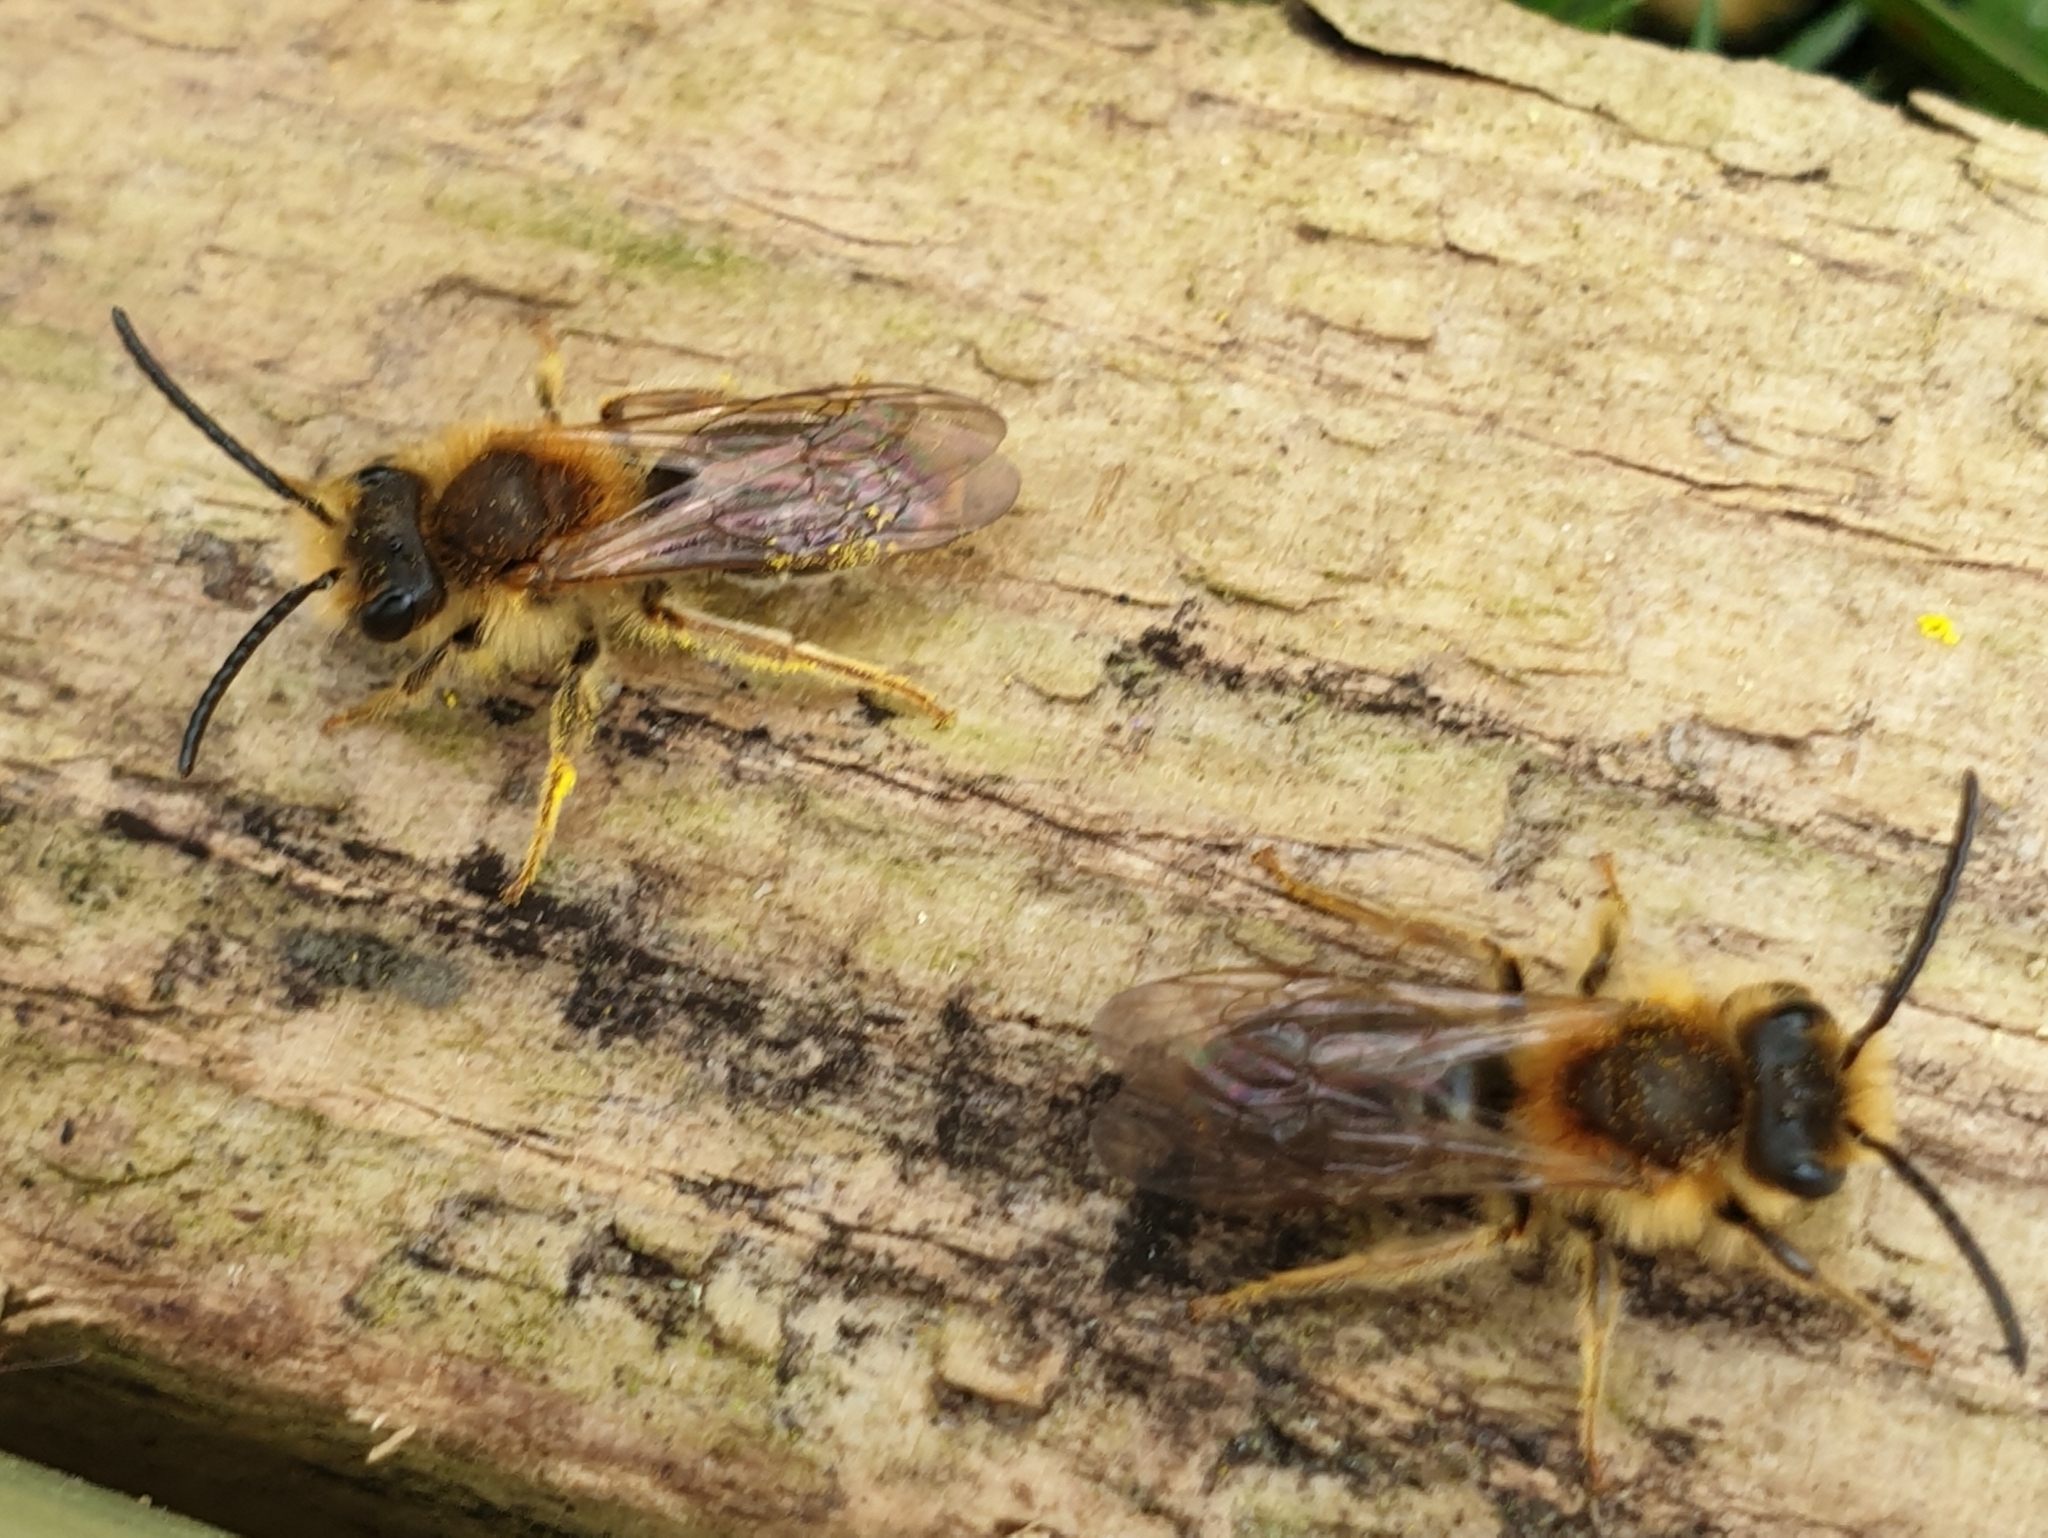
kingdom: Animalia
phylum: Arthropoda
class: Insecta
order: Hymenoptera
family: Andrenidae
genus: Andrena
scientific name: Andrena haemorrhoa
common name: Early mining bee
